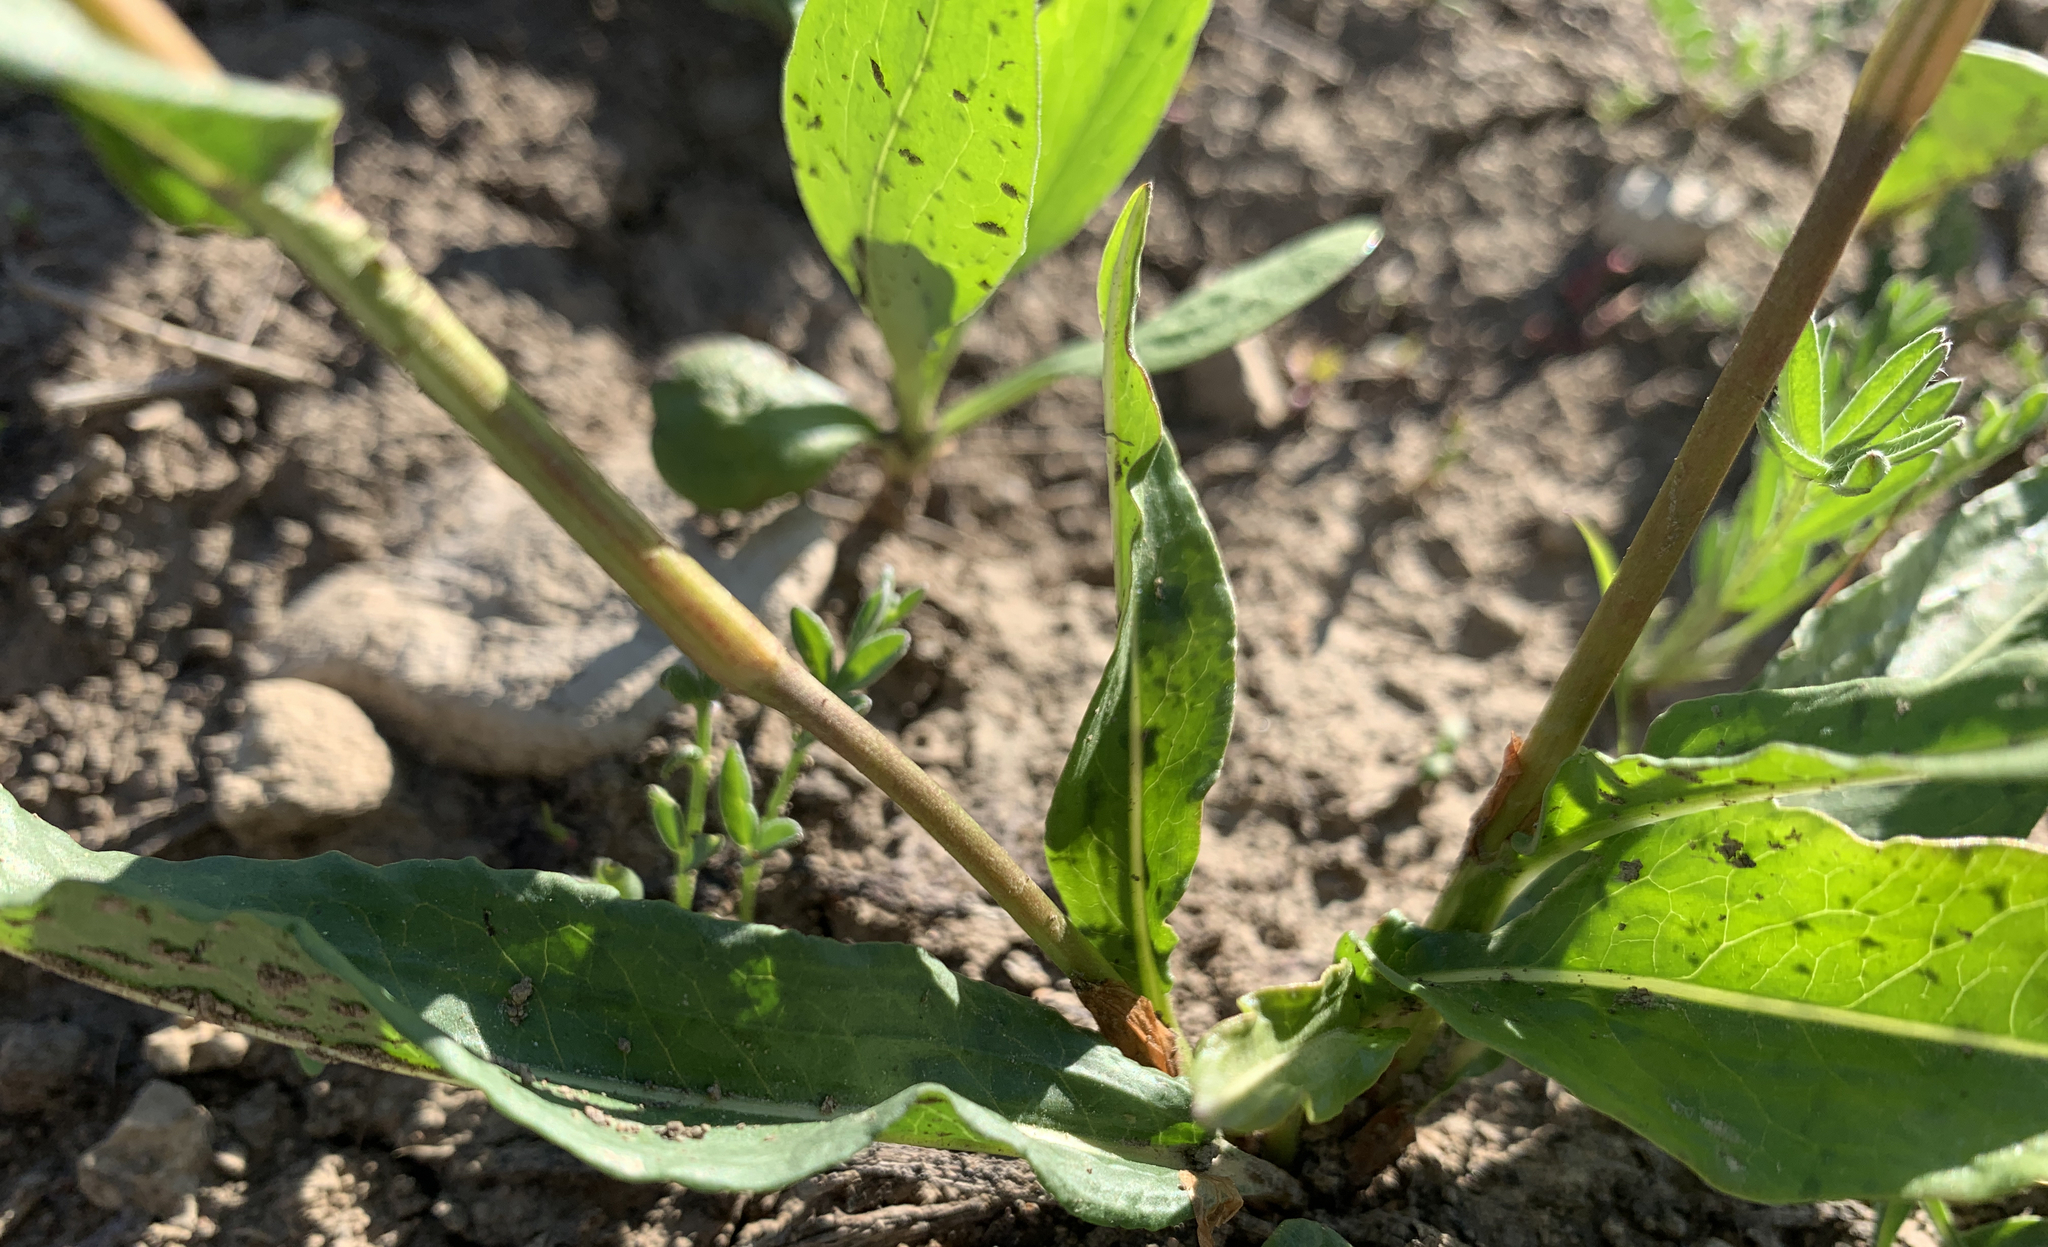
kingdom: Plantae
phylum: Tracheophyta
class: Magnoliopsida
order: Caryophyllales
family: Polygonaceae
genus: Bistorta
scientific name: Bistorta bistortoides
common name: American bistort
